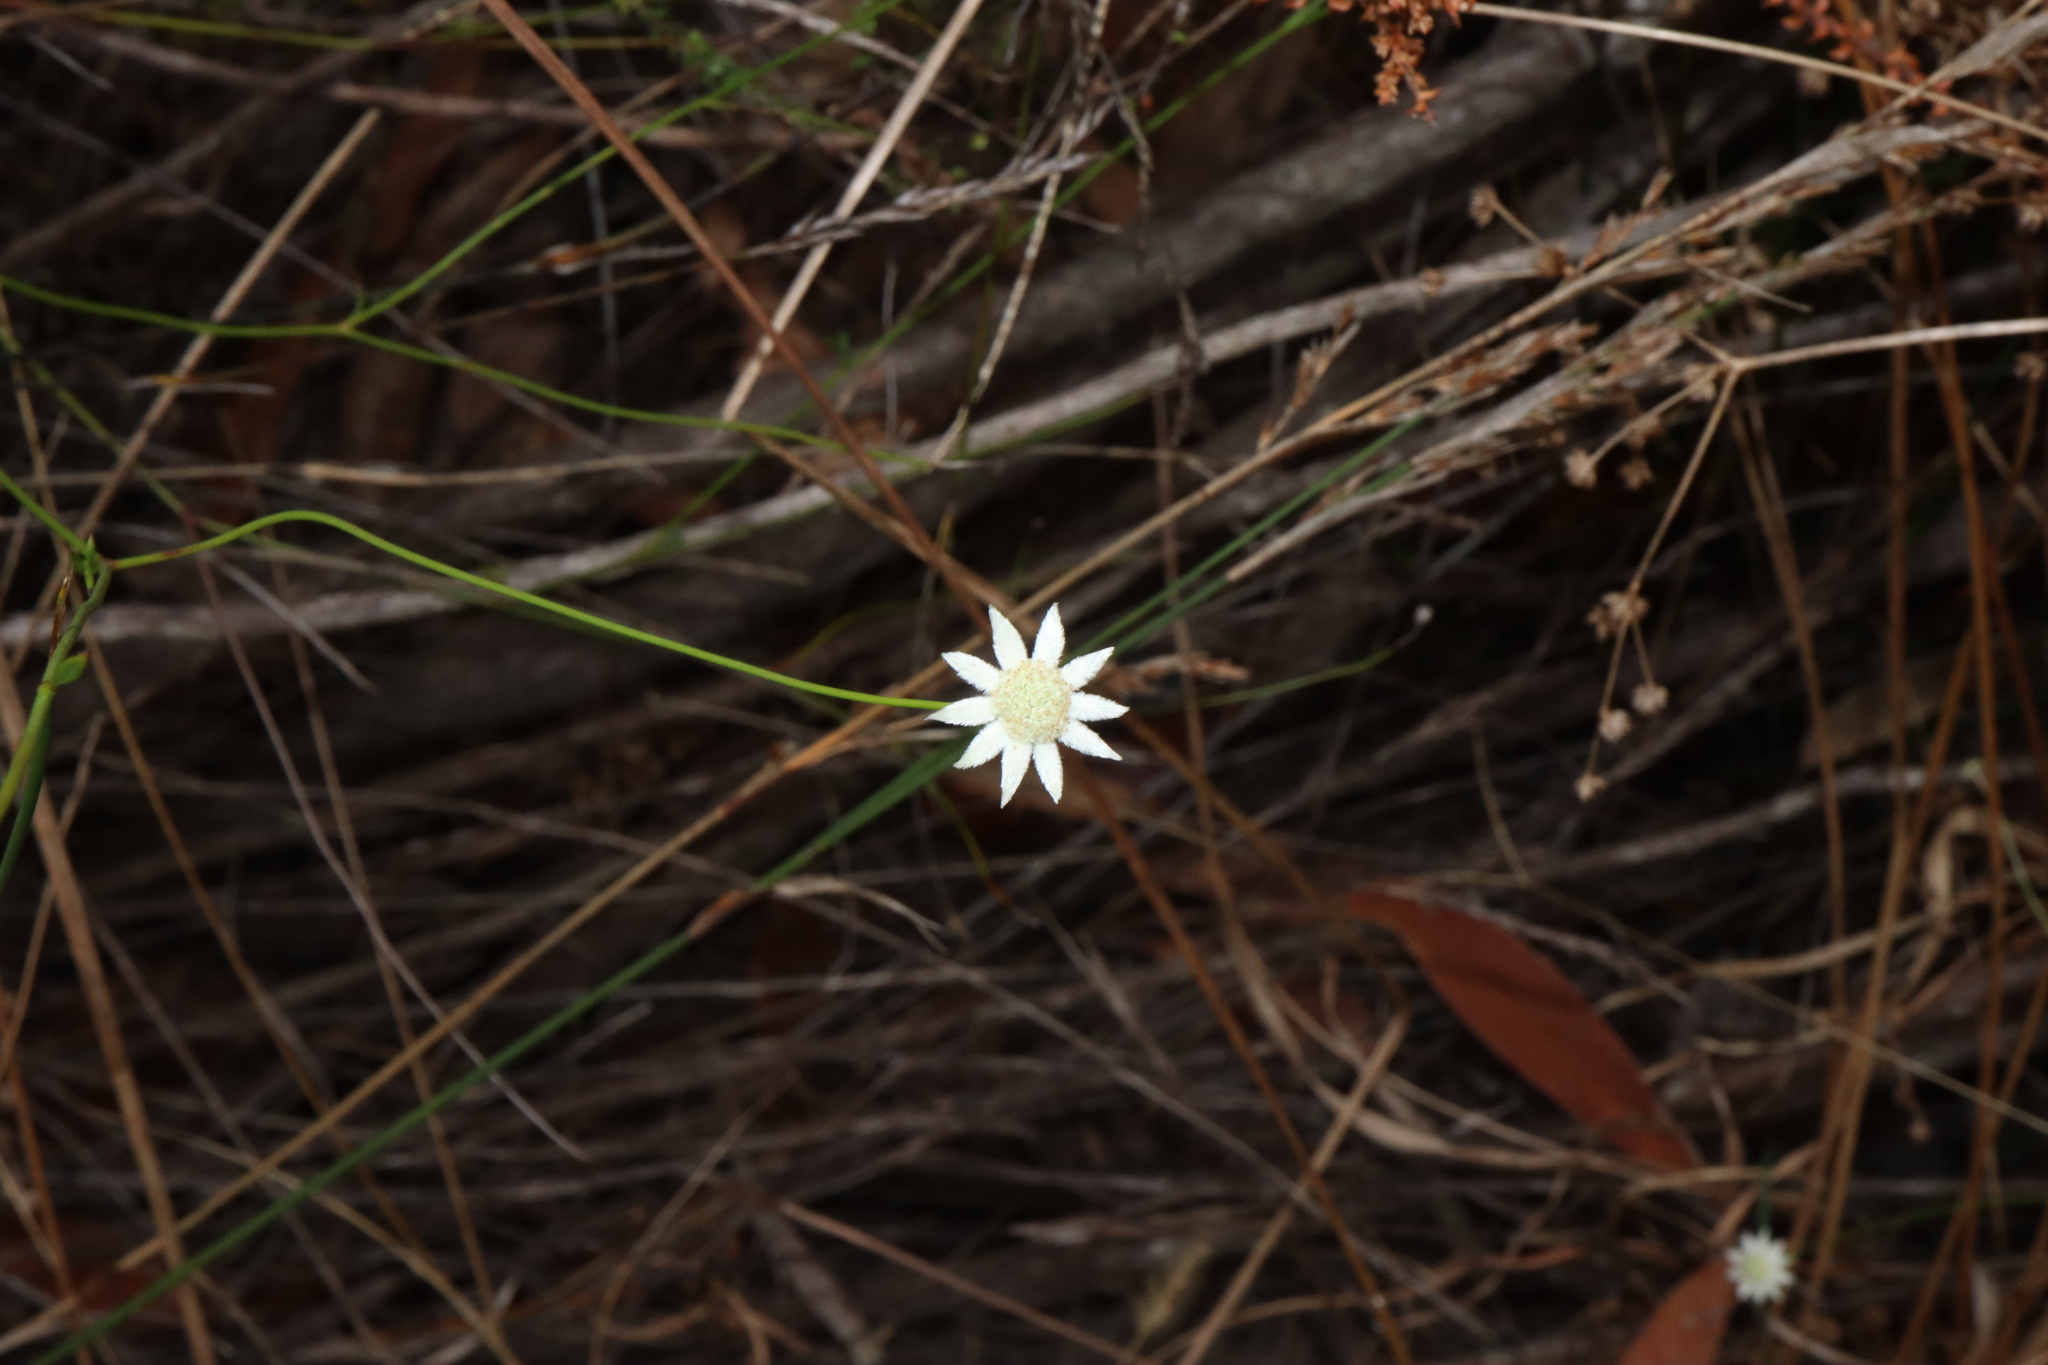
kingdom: Plantae
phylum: Tracheophyta
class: Magnoliopsida
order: Apiales
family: Apiaceae
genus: Actinotus
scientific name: Actinotus minor
